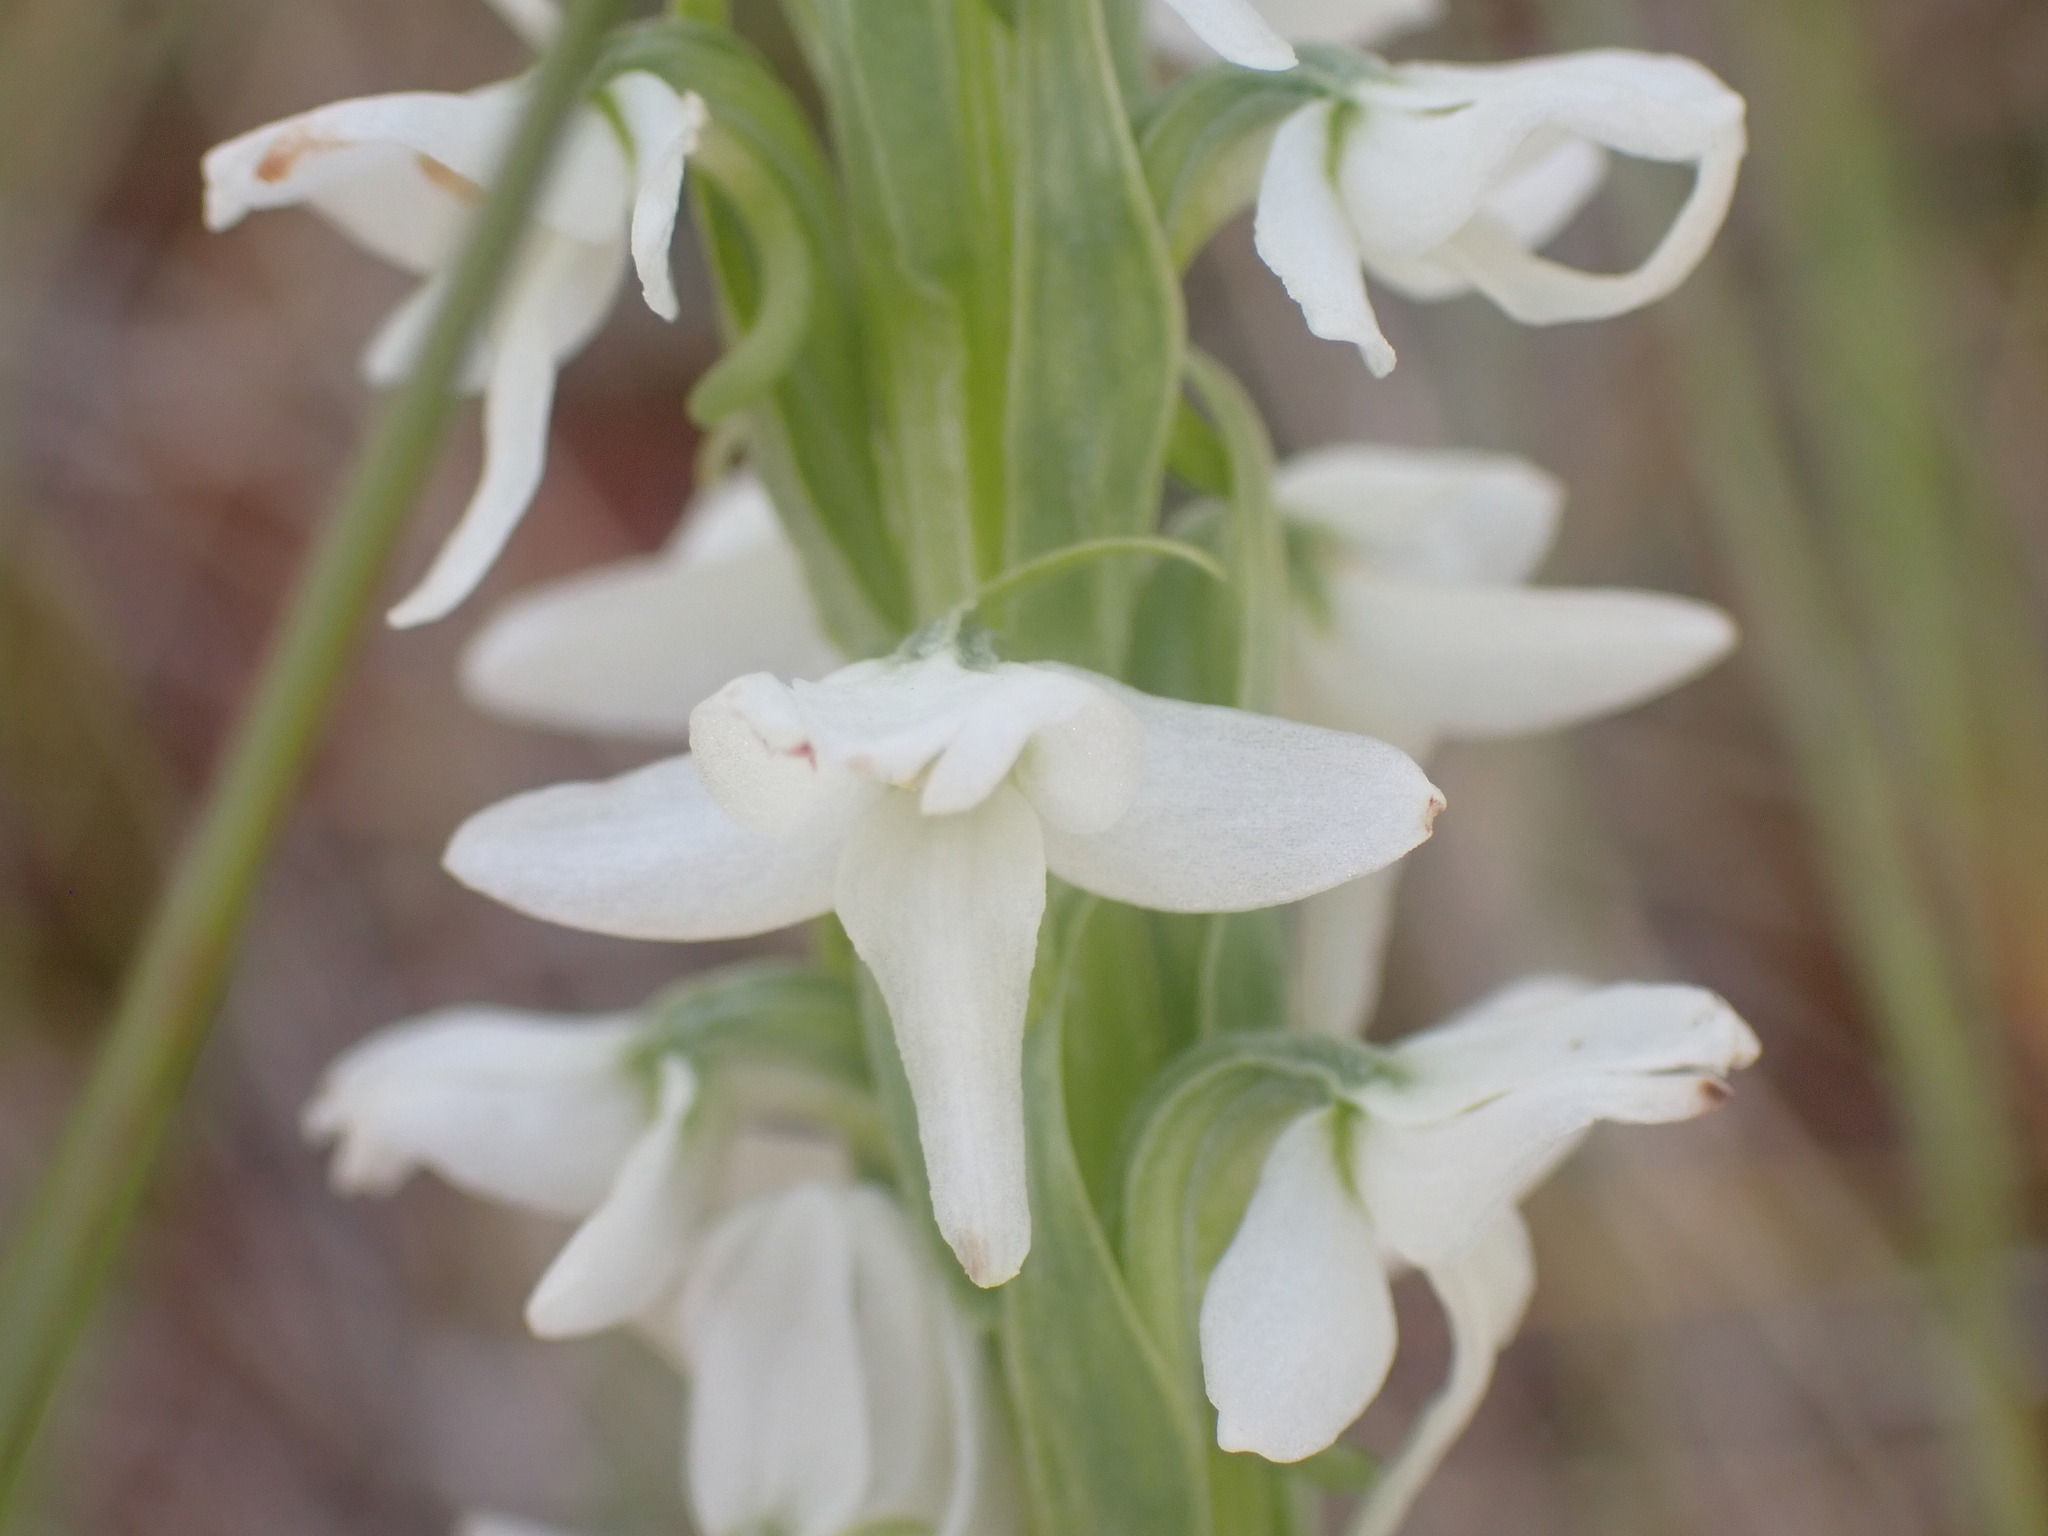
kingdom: Plantae
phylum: Tracheophyta
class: Liliopsida
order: Asparagales
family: Orchidaceae
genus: Platanthera
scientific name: Platanthera dilatata
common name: Bog candles
